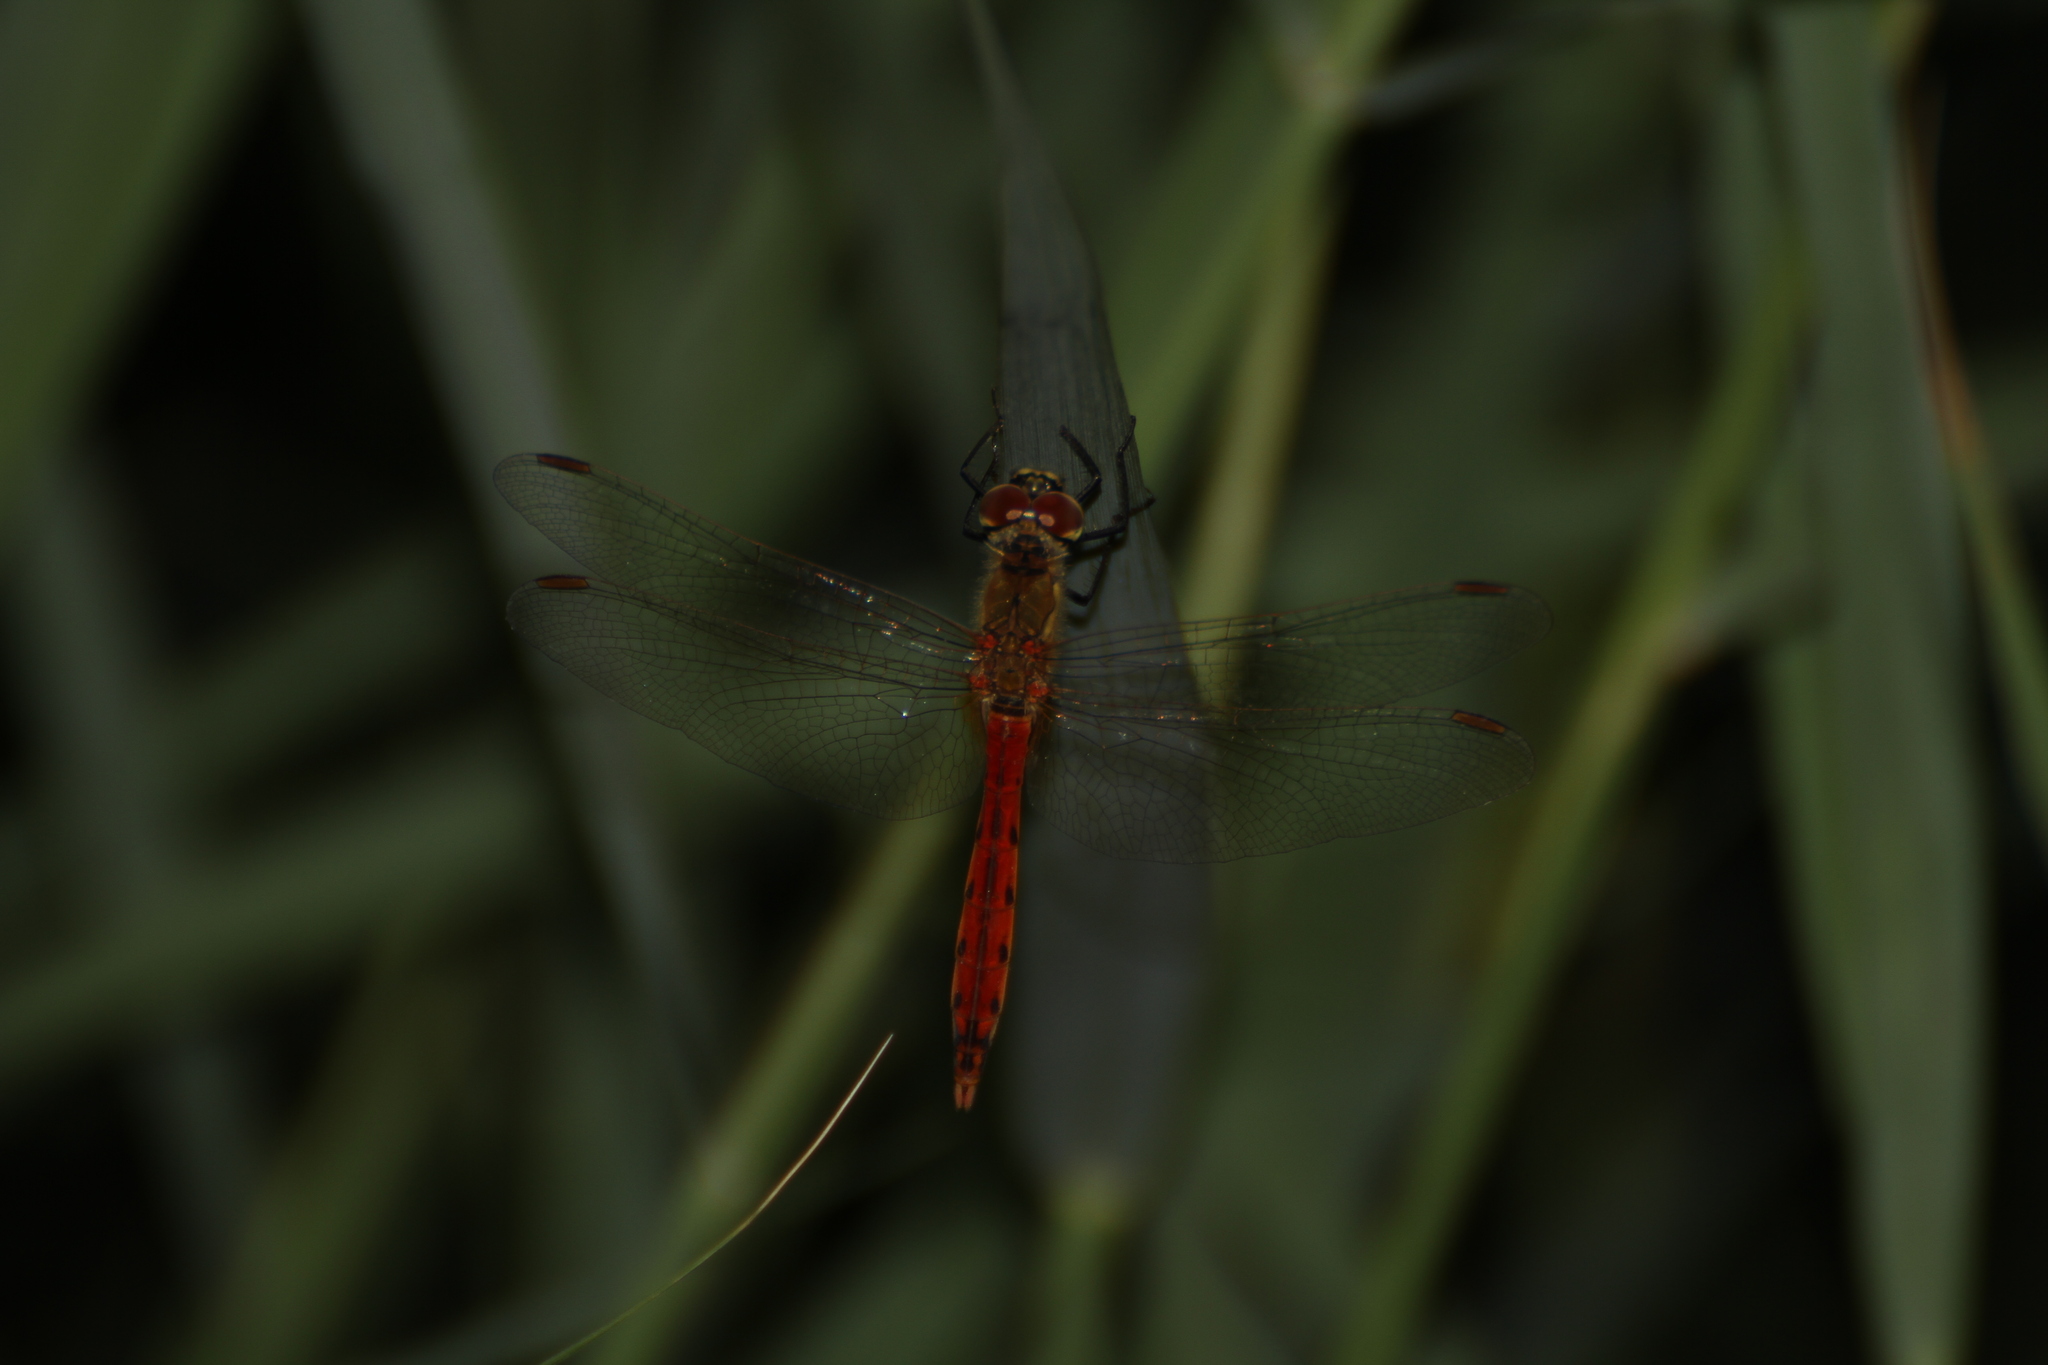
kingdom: Animalia
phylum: Arthropoda
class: Insecta
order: Odonata
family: Libellulidae
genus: Sympetrum
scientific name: Sympetrum depressiusculum
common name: Spotted darter
